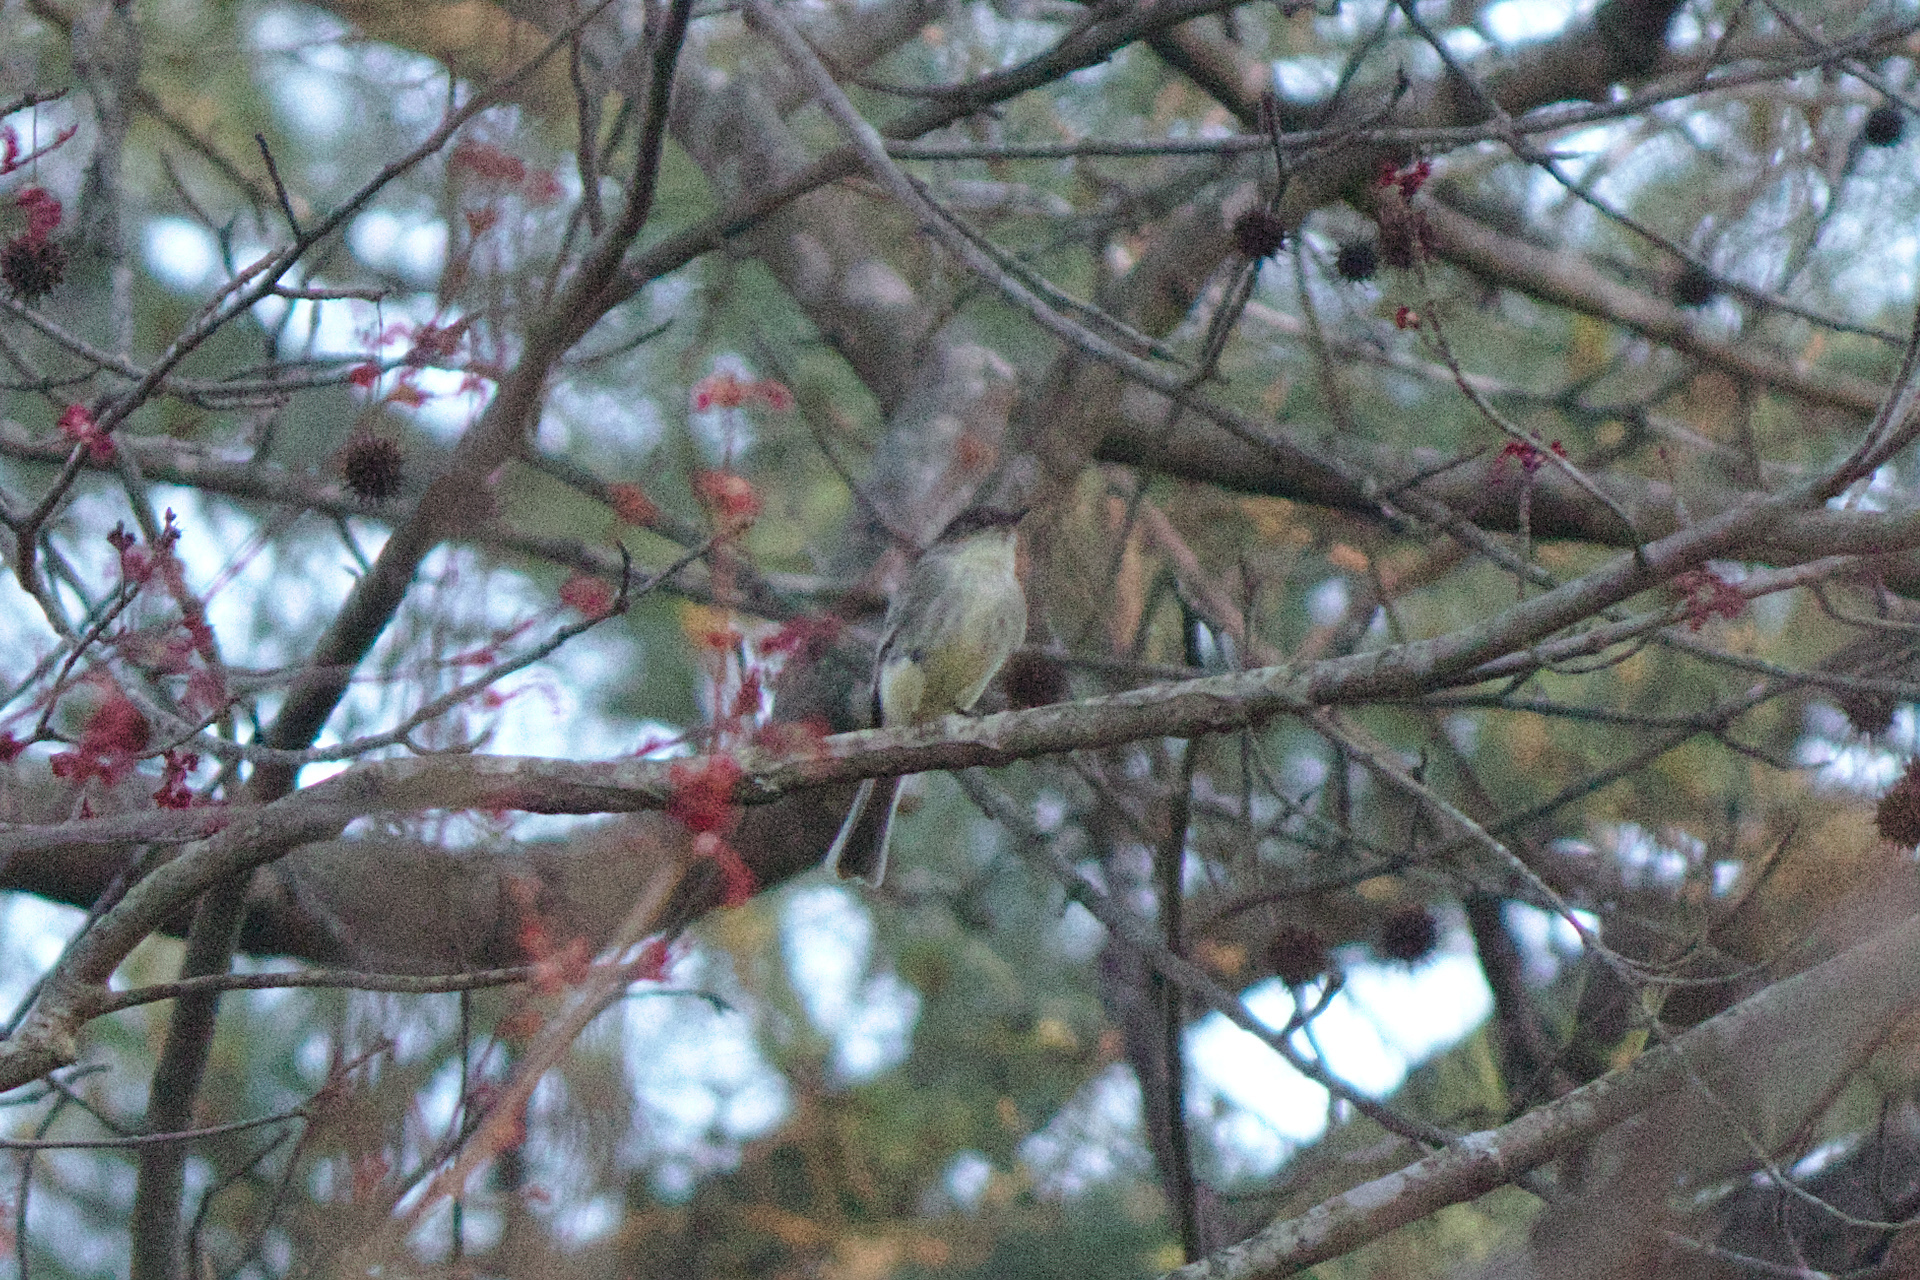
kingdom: Animalia
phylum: Chordata
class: Aves
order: Passeriformes
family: Tyrannidae
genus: Sayornis
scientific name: Sayornis phoebe
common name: Eastern phoebe
